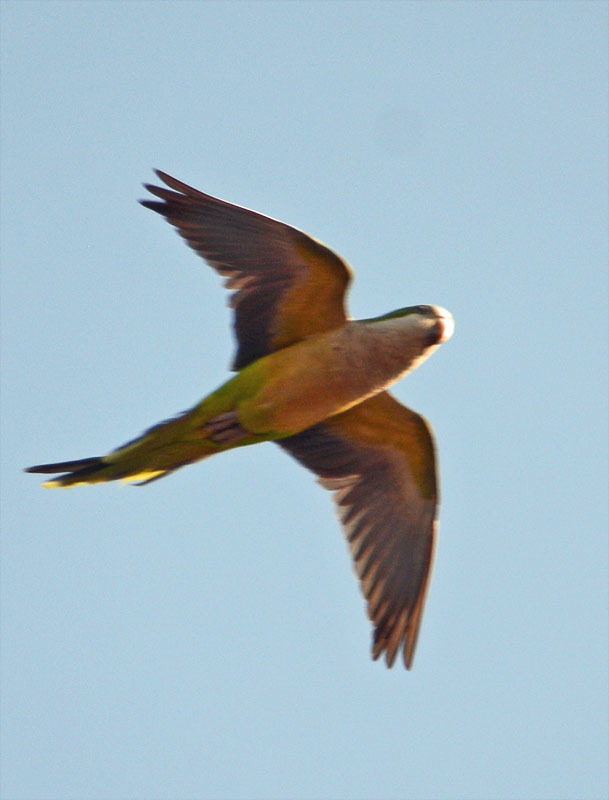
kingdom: Animalia
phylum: Chordata
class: Aves
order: Psittaciformes
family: Psittacidae
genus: Myiopsitta
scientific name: Myiopsitta monachus
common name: Monk parakeet
